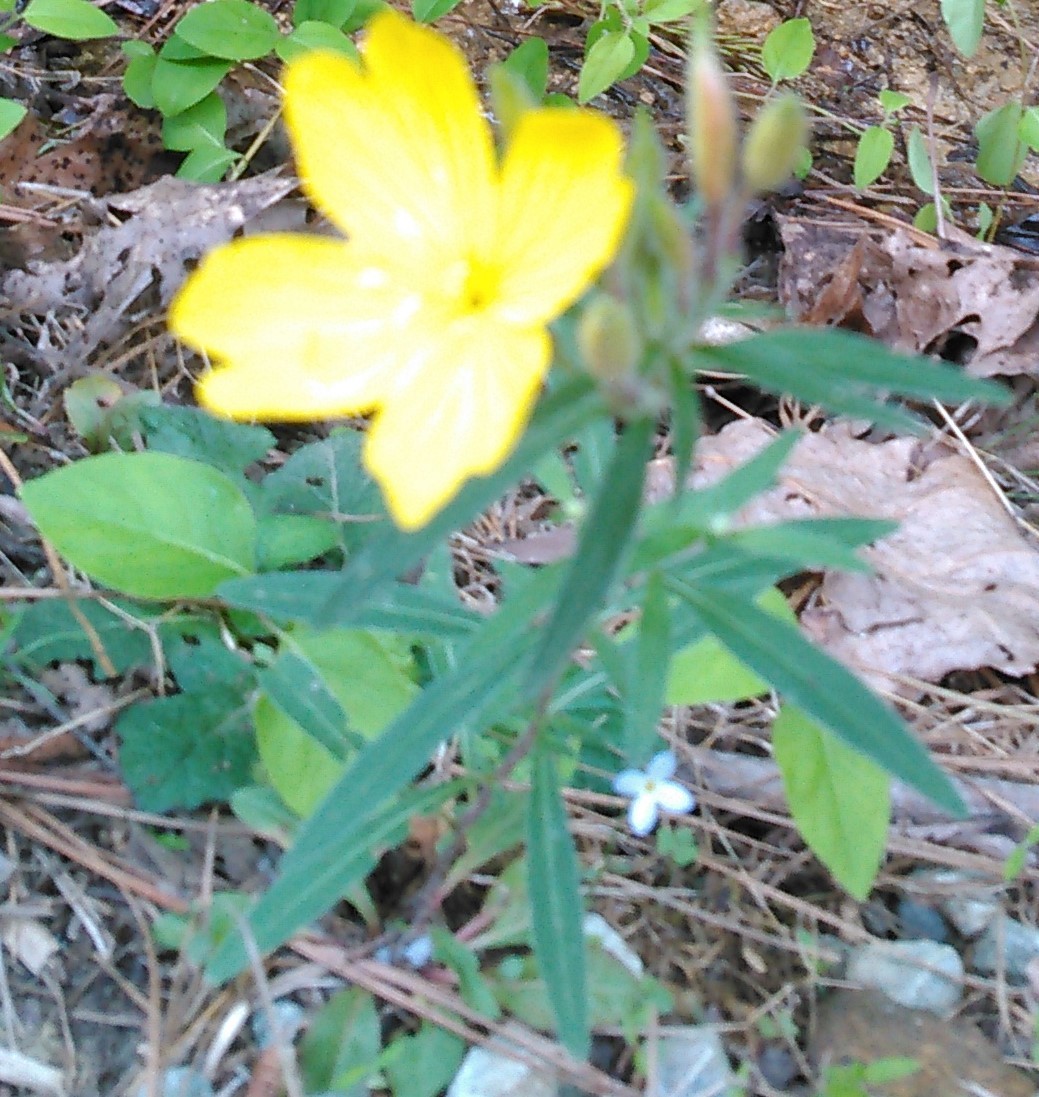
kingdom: Plantae
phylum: Tracheophyta
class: Magnoliopsida
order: Myrtales
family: Onagraceae
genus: Oenothera
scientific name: Oenothera fruticosa
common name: Southern sundrops
